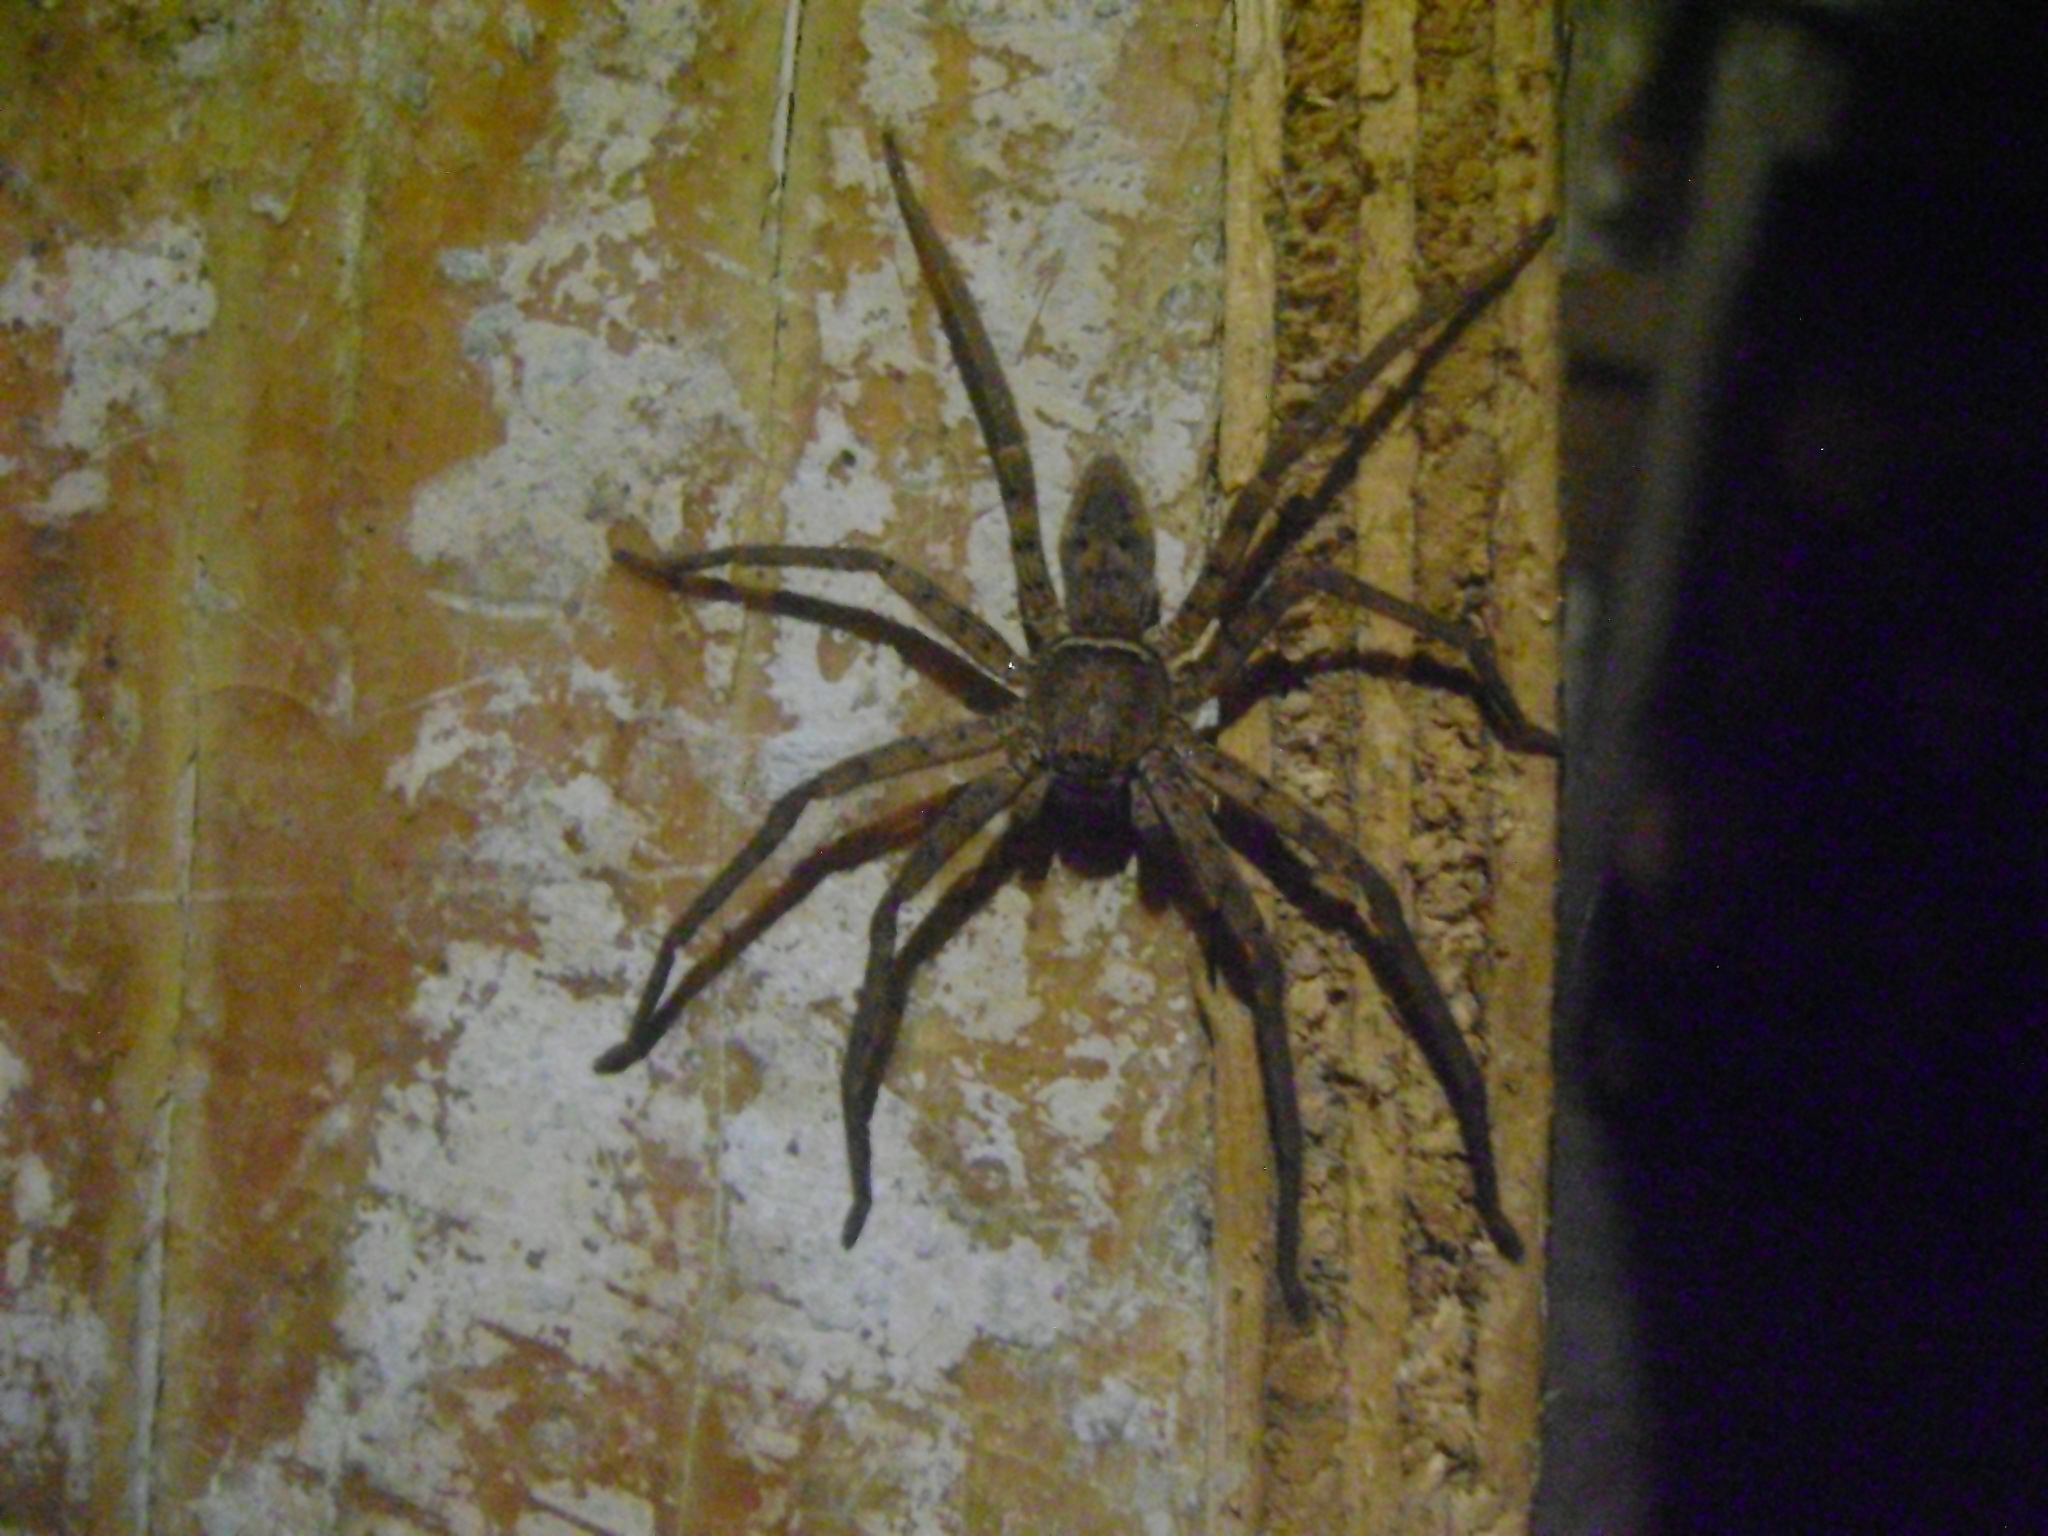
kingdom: Animalia
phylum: Arthropoda
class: Arachnida
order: Araneae
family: Sparassidae
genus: Heteropoda
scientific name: Heteropoda venatoria
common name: Huntsman spider
